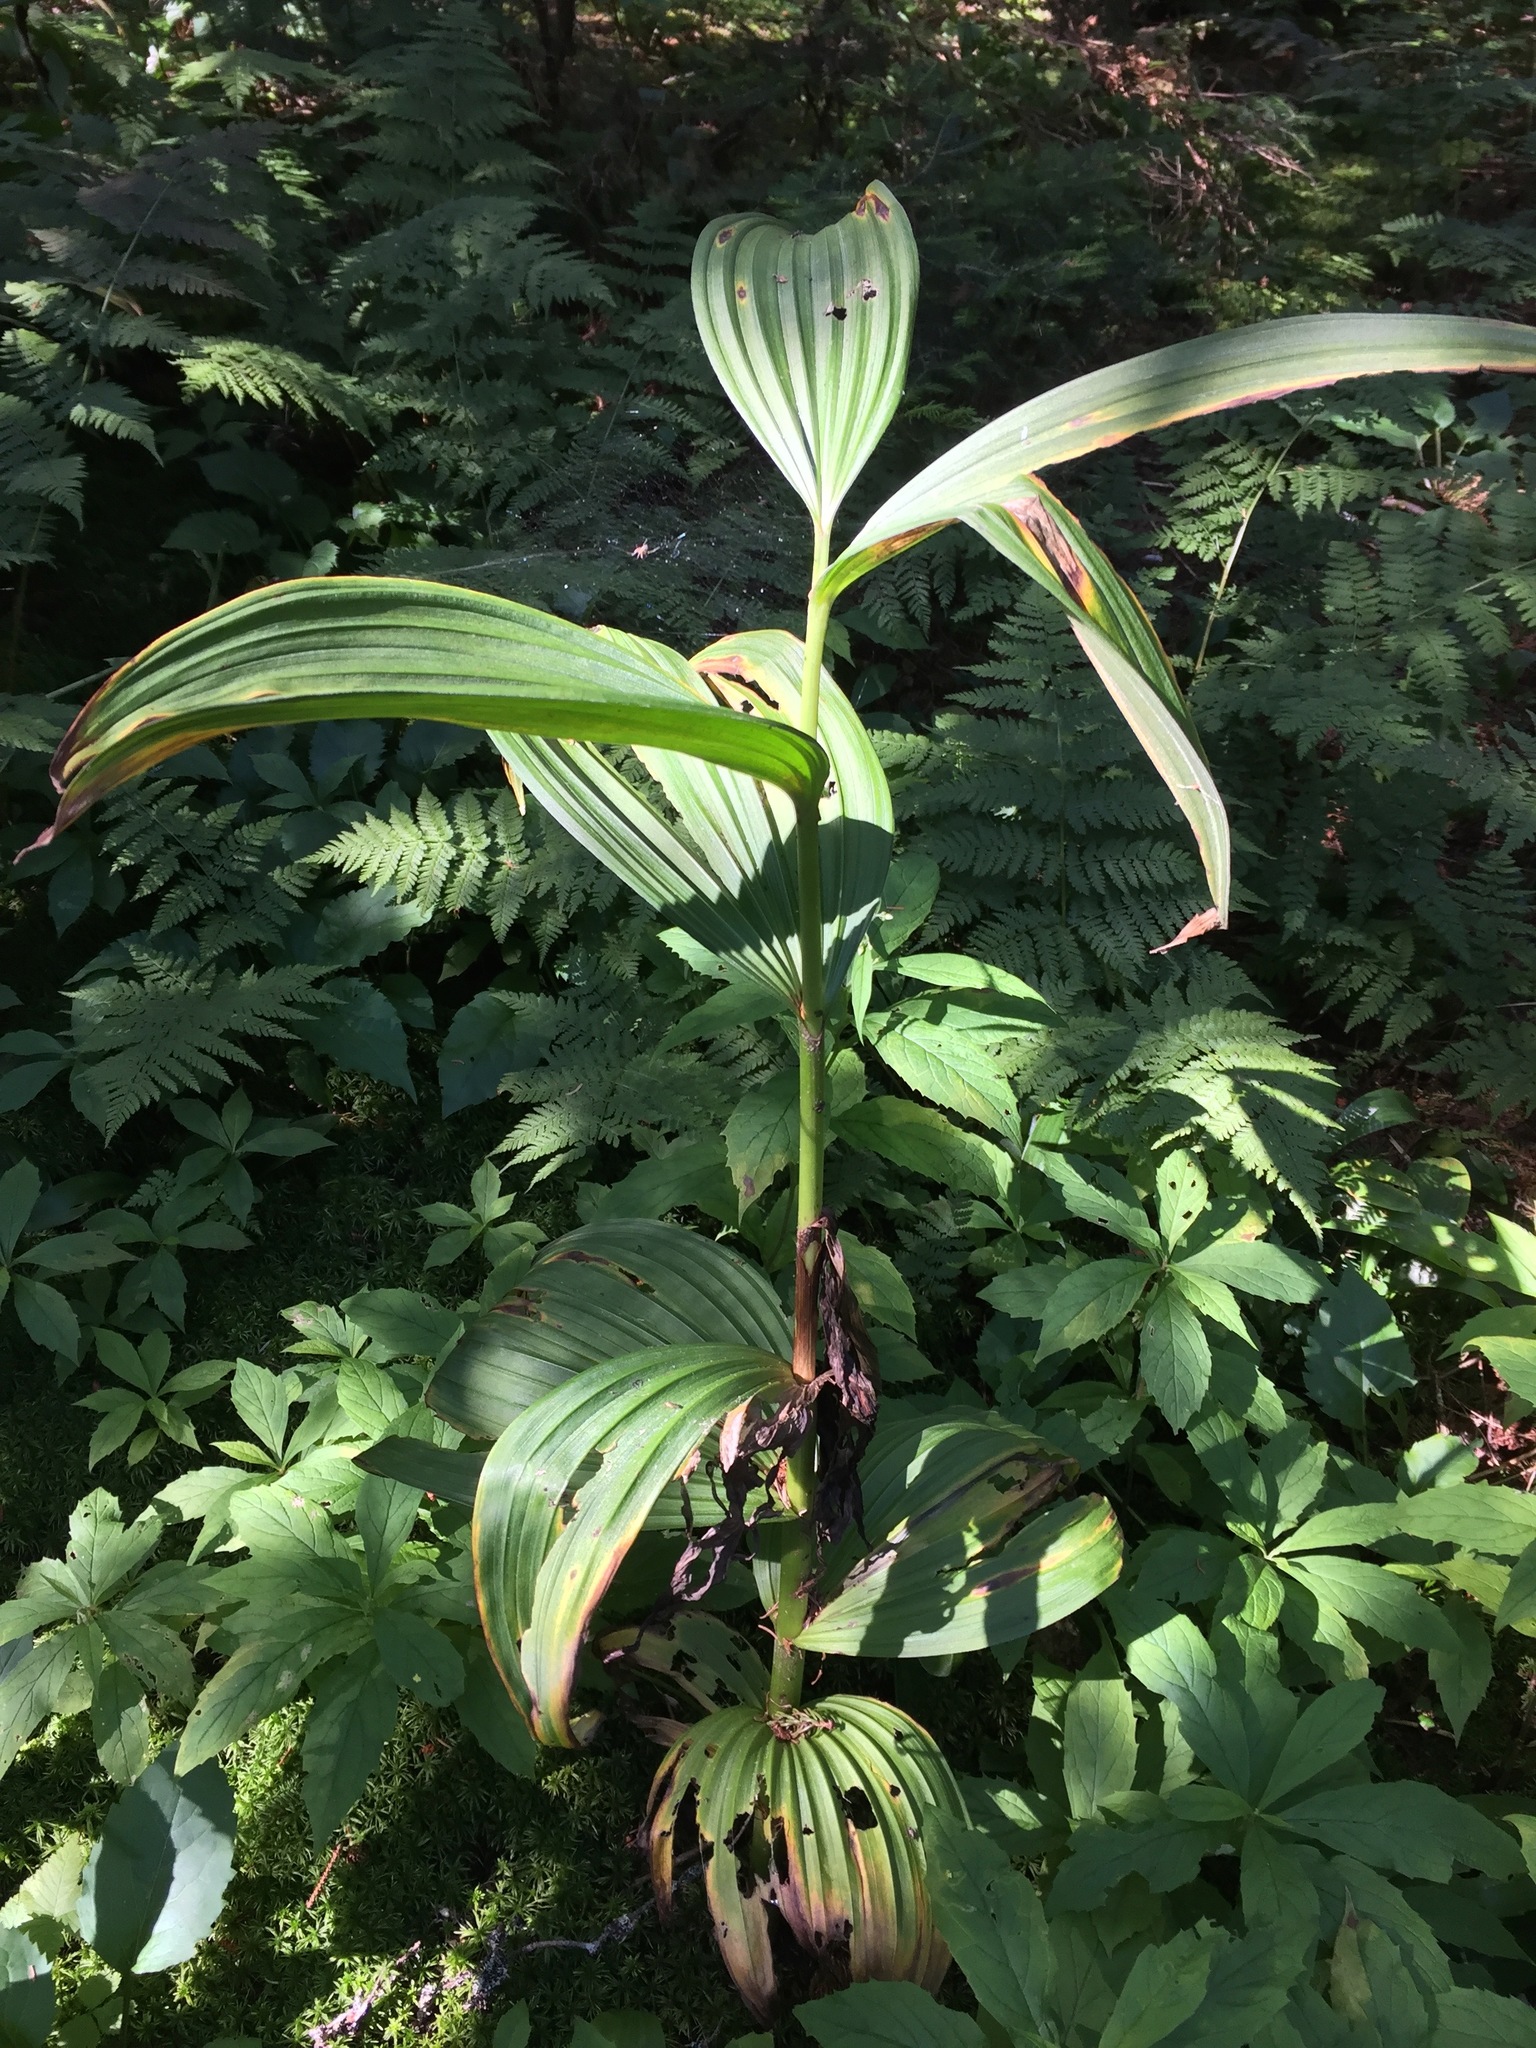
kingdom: Plantae
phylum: Tracheophyta
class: Liliopsida
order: Liliales
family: Melanthiaceae
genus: Veratrum
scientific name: Veratrum viride
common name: American false hellebore
